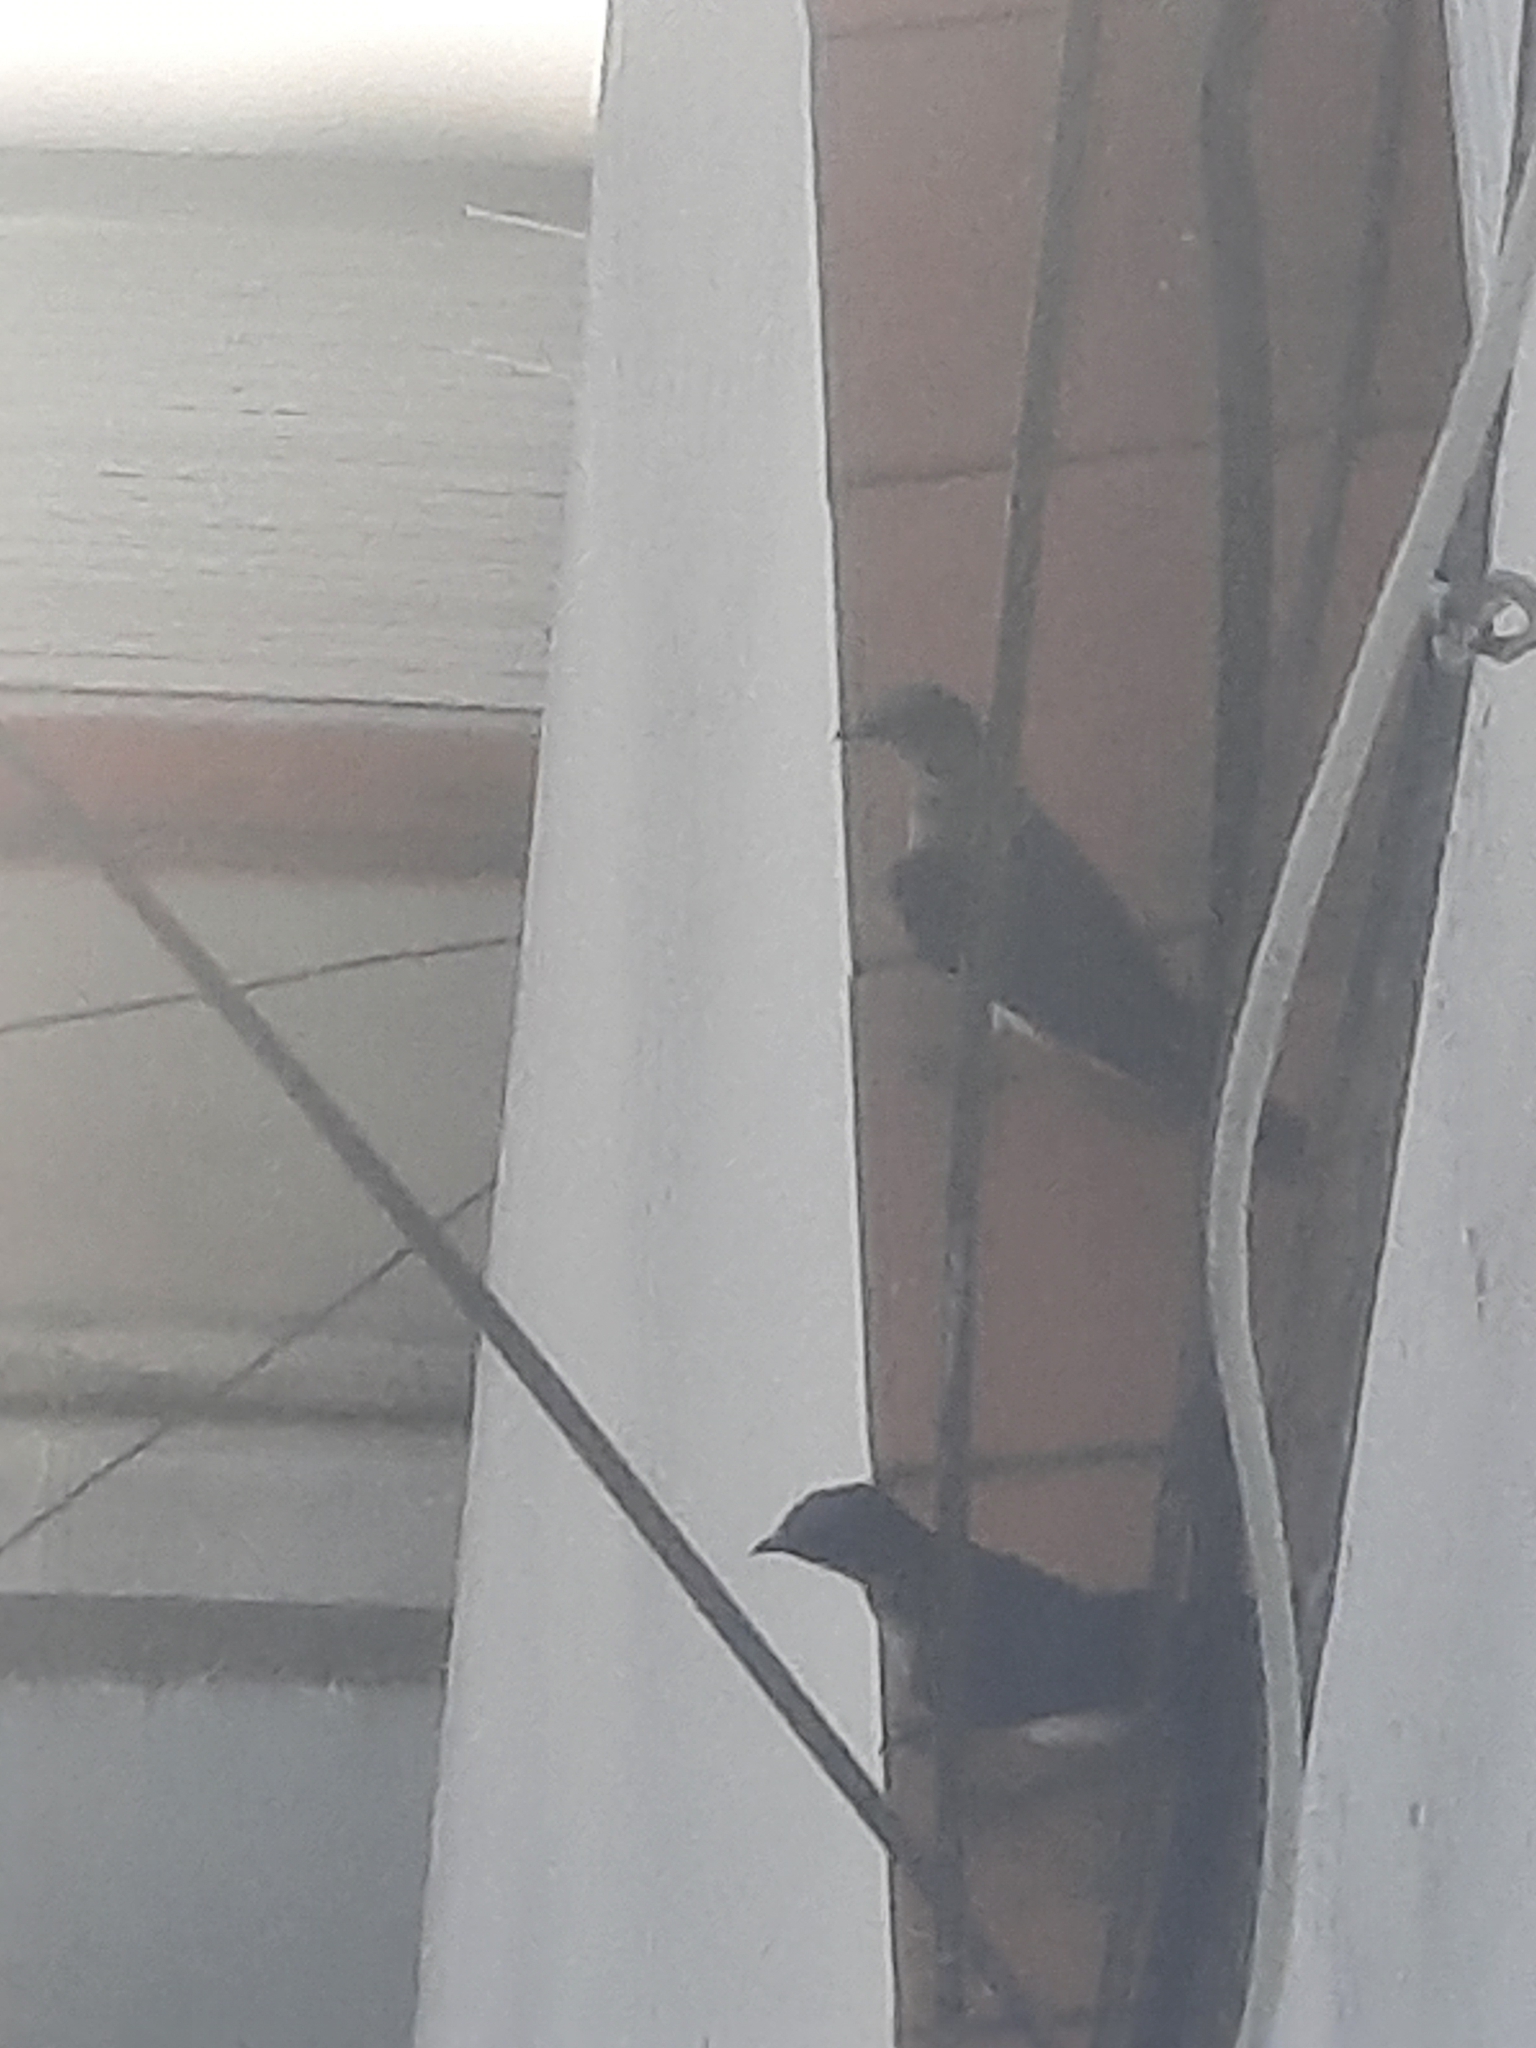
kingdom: Animalia
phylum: Chordata
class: Aves
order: Passeriformes
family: Hirundinidae
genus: Progne
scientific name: Progne chalybea
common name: Grey-breasted martin
